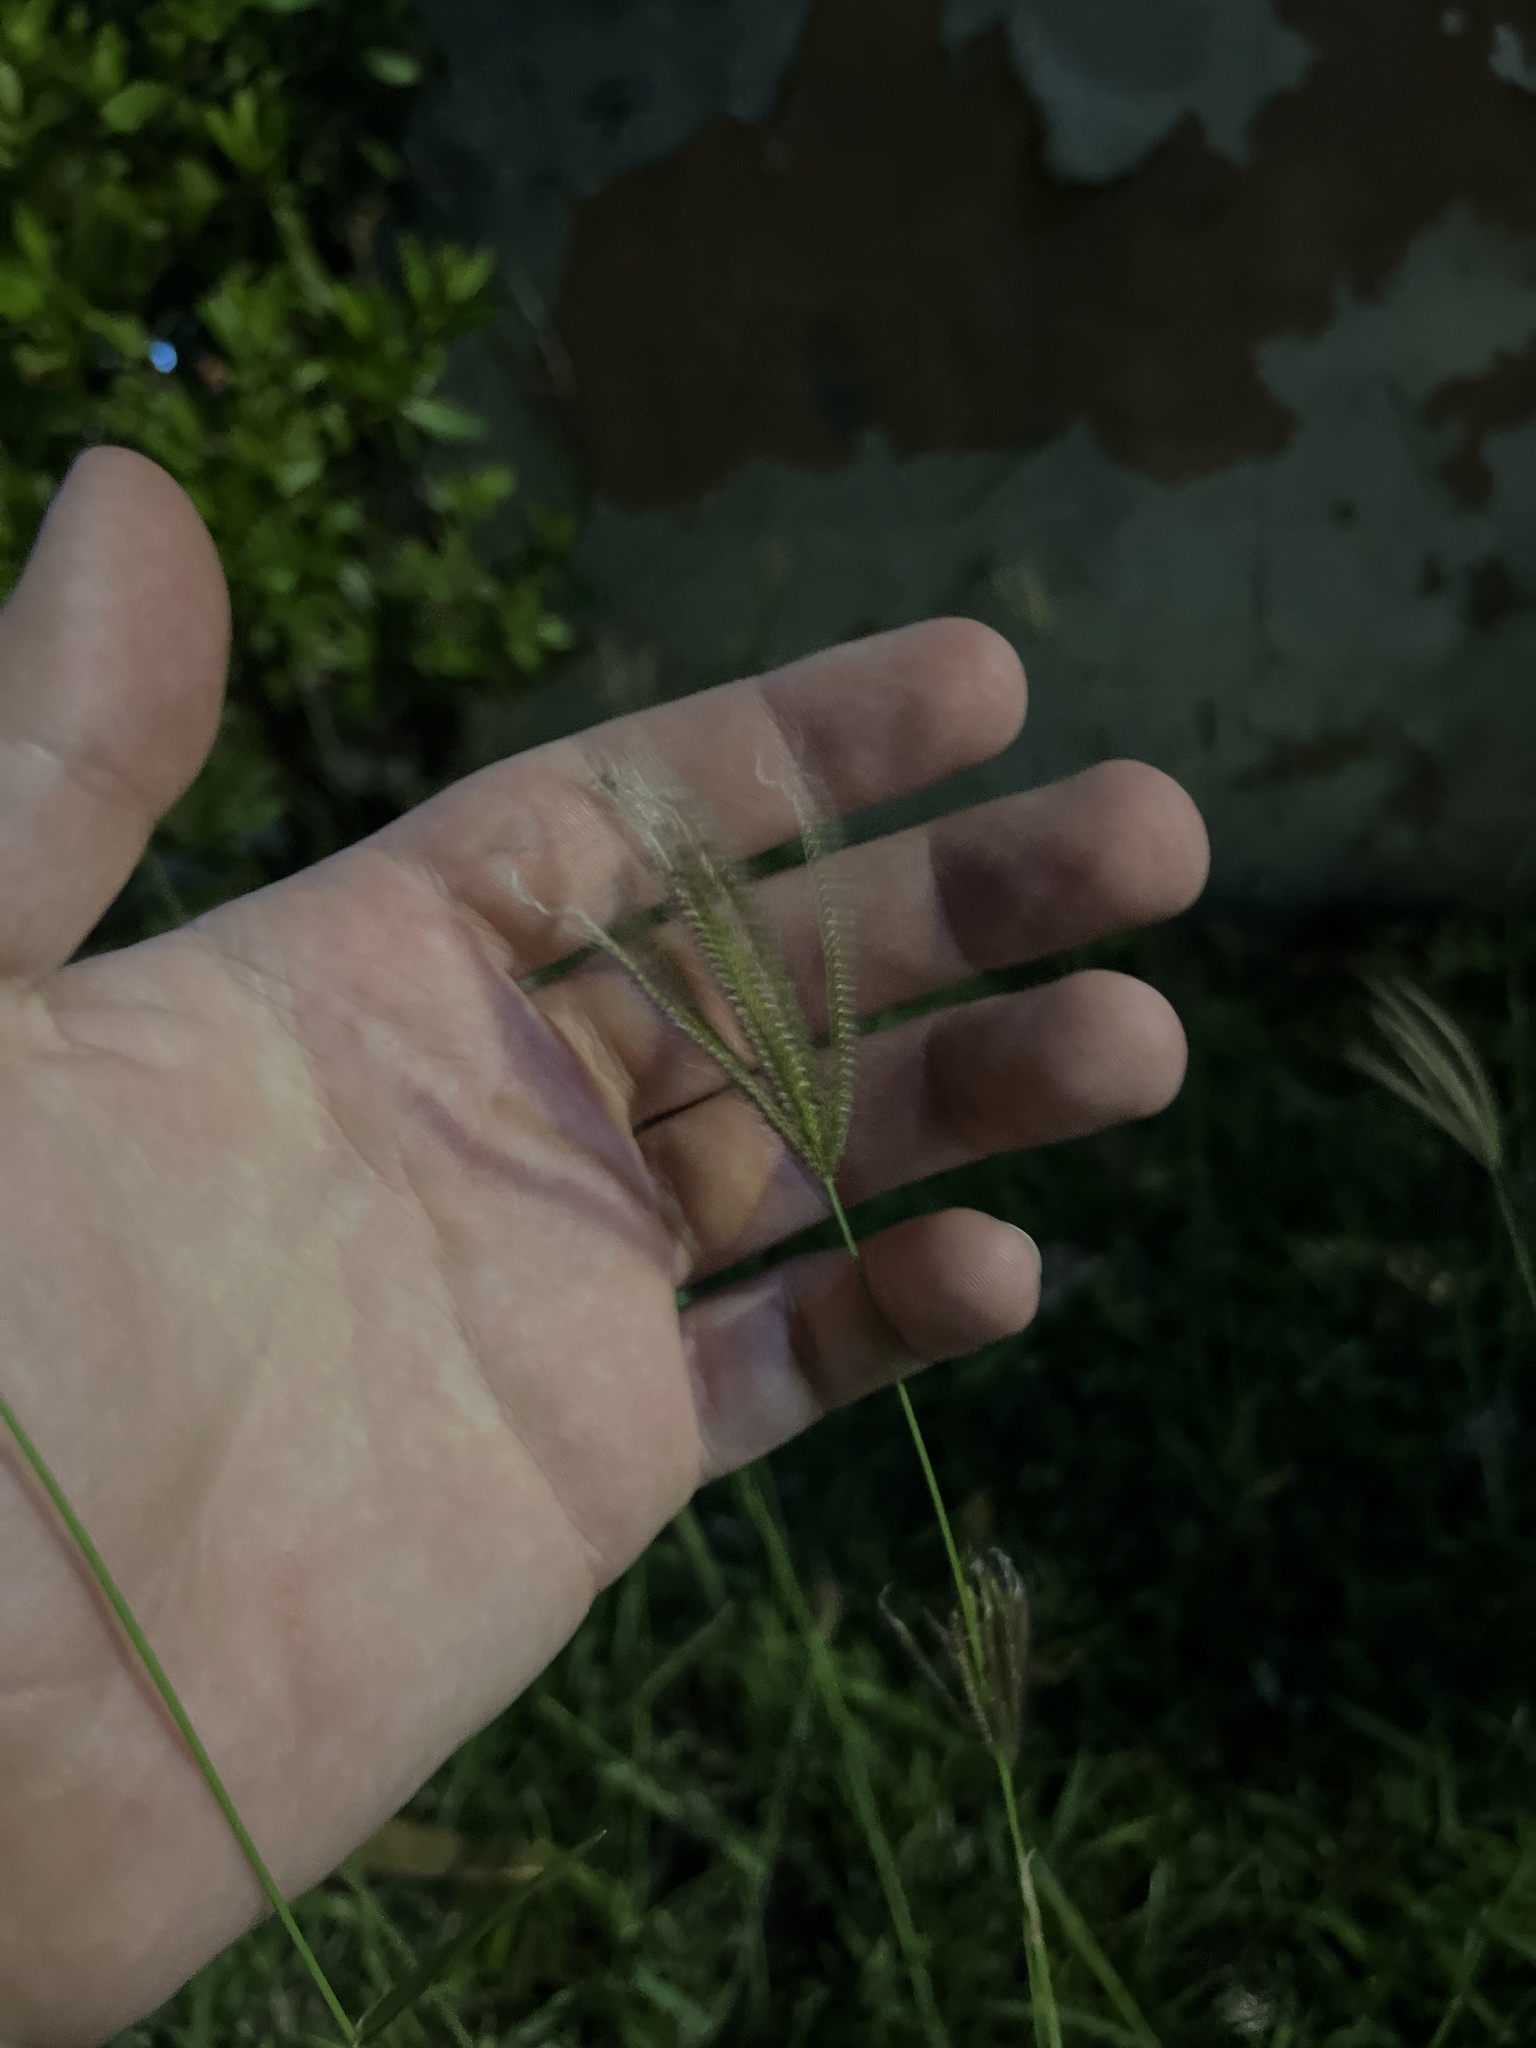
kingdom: Plantae
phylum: Tracheophyta
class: Liliopsida
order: Poales
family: Poaceae
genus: Chloris
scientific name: Chloris barbata
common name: Swollen fingergrass
